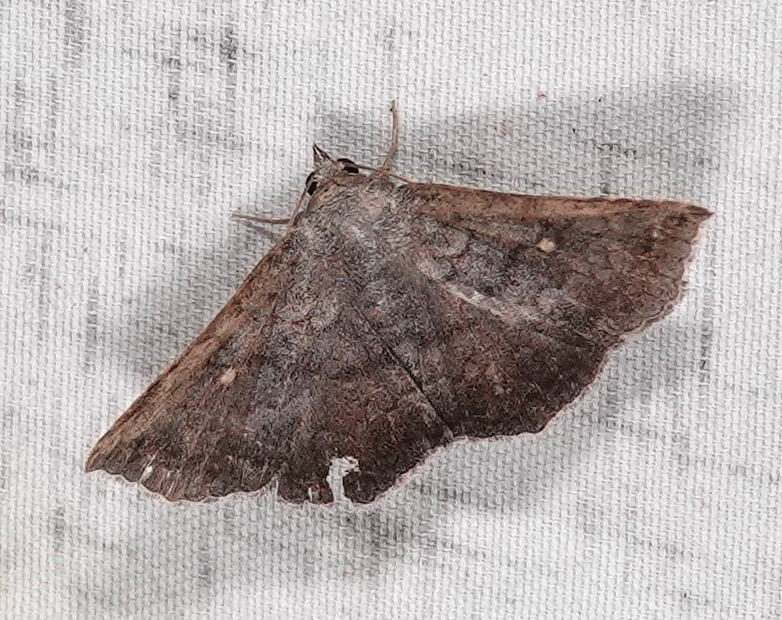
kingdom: Animalia
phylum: Arthropoda
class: Insecta
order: Lepidoptera
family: Erebidae
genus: Lesmone
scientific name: Lesmone detrahens
